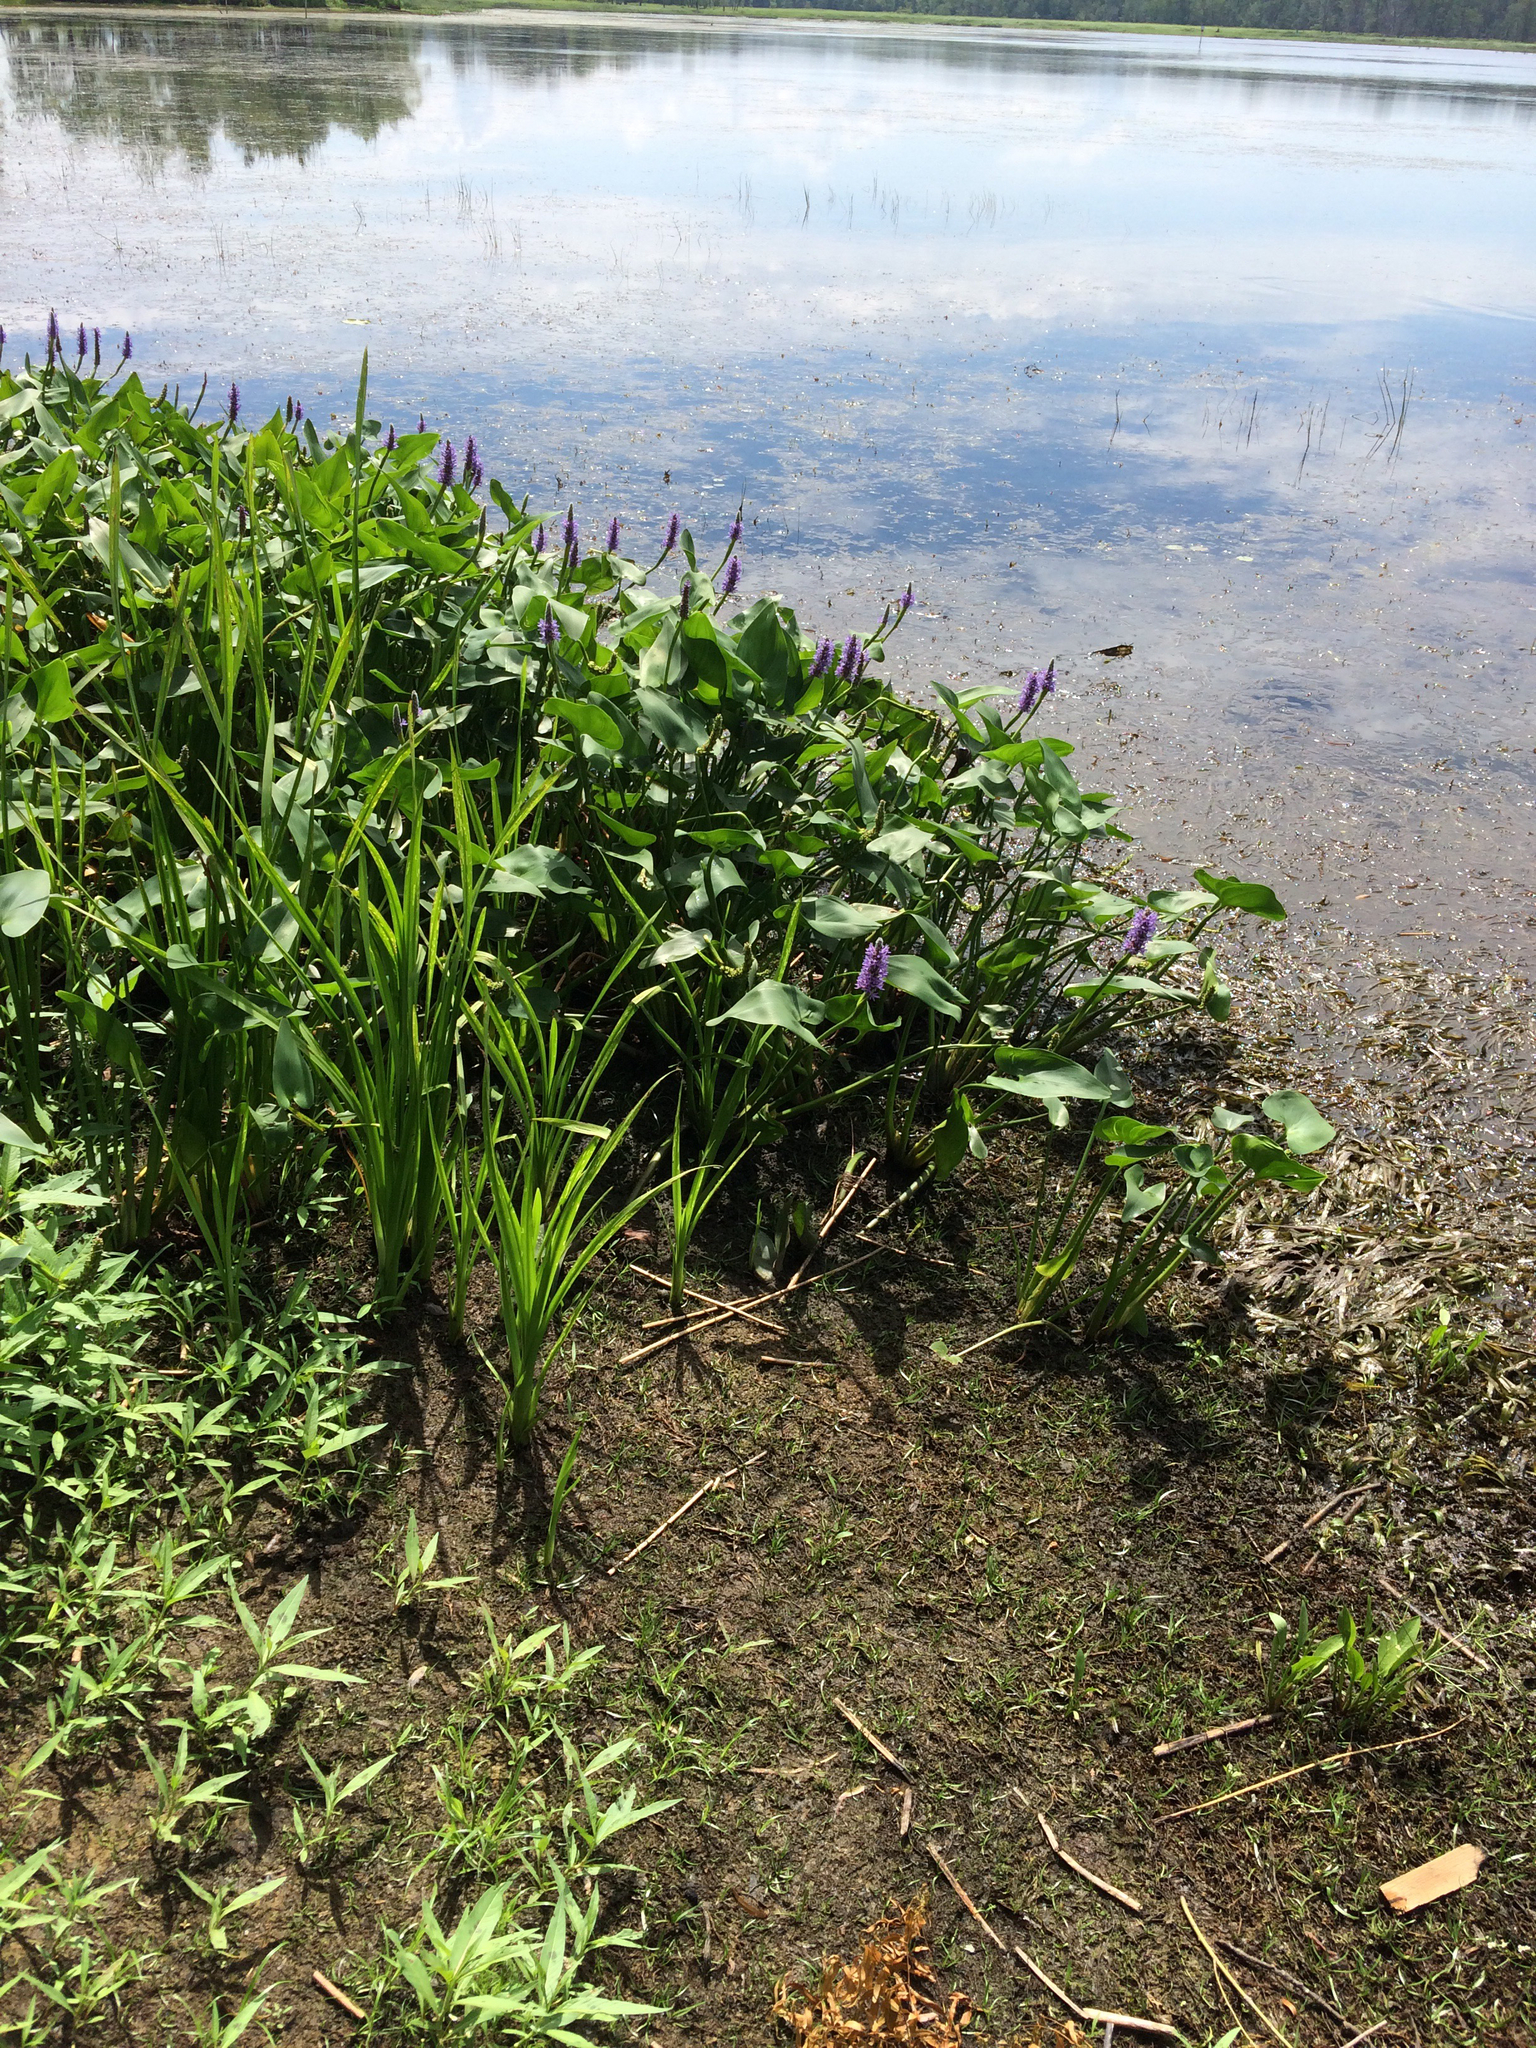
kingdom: Plantae
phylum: Tracheophyta
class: Liliopsida
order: Commelinales
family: Pontederiaceae
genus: Pontederia
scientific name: Pontederia cordata
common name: Pickerelweed
